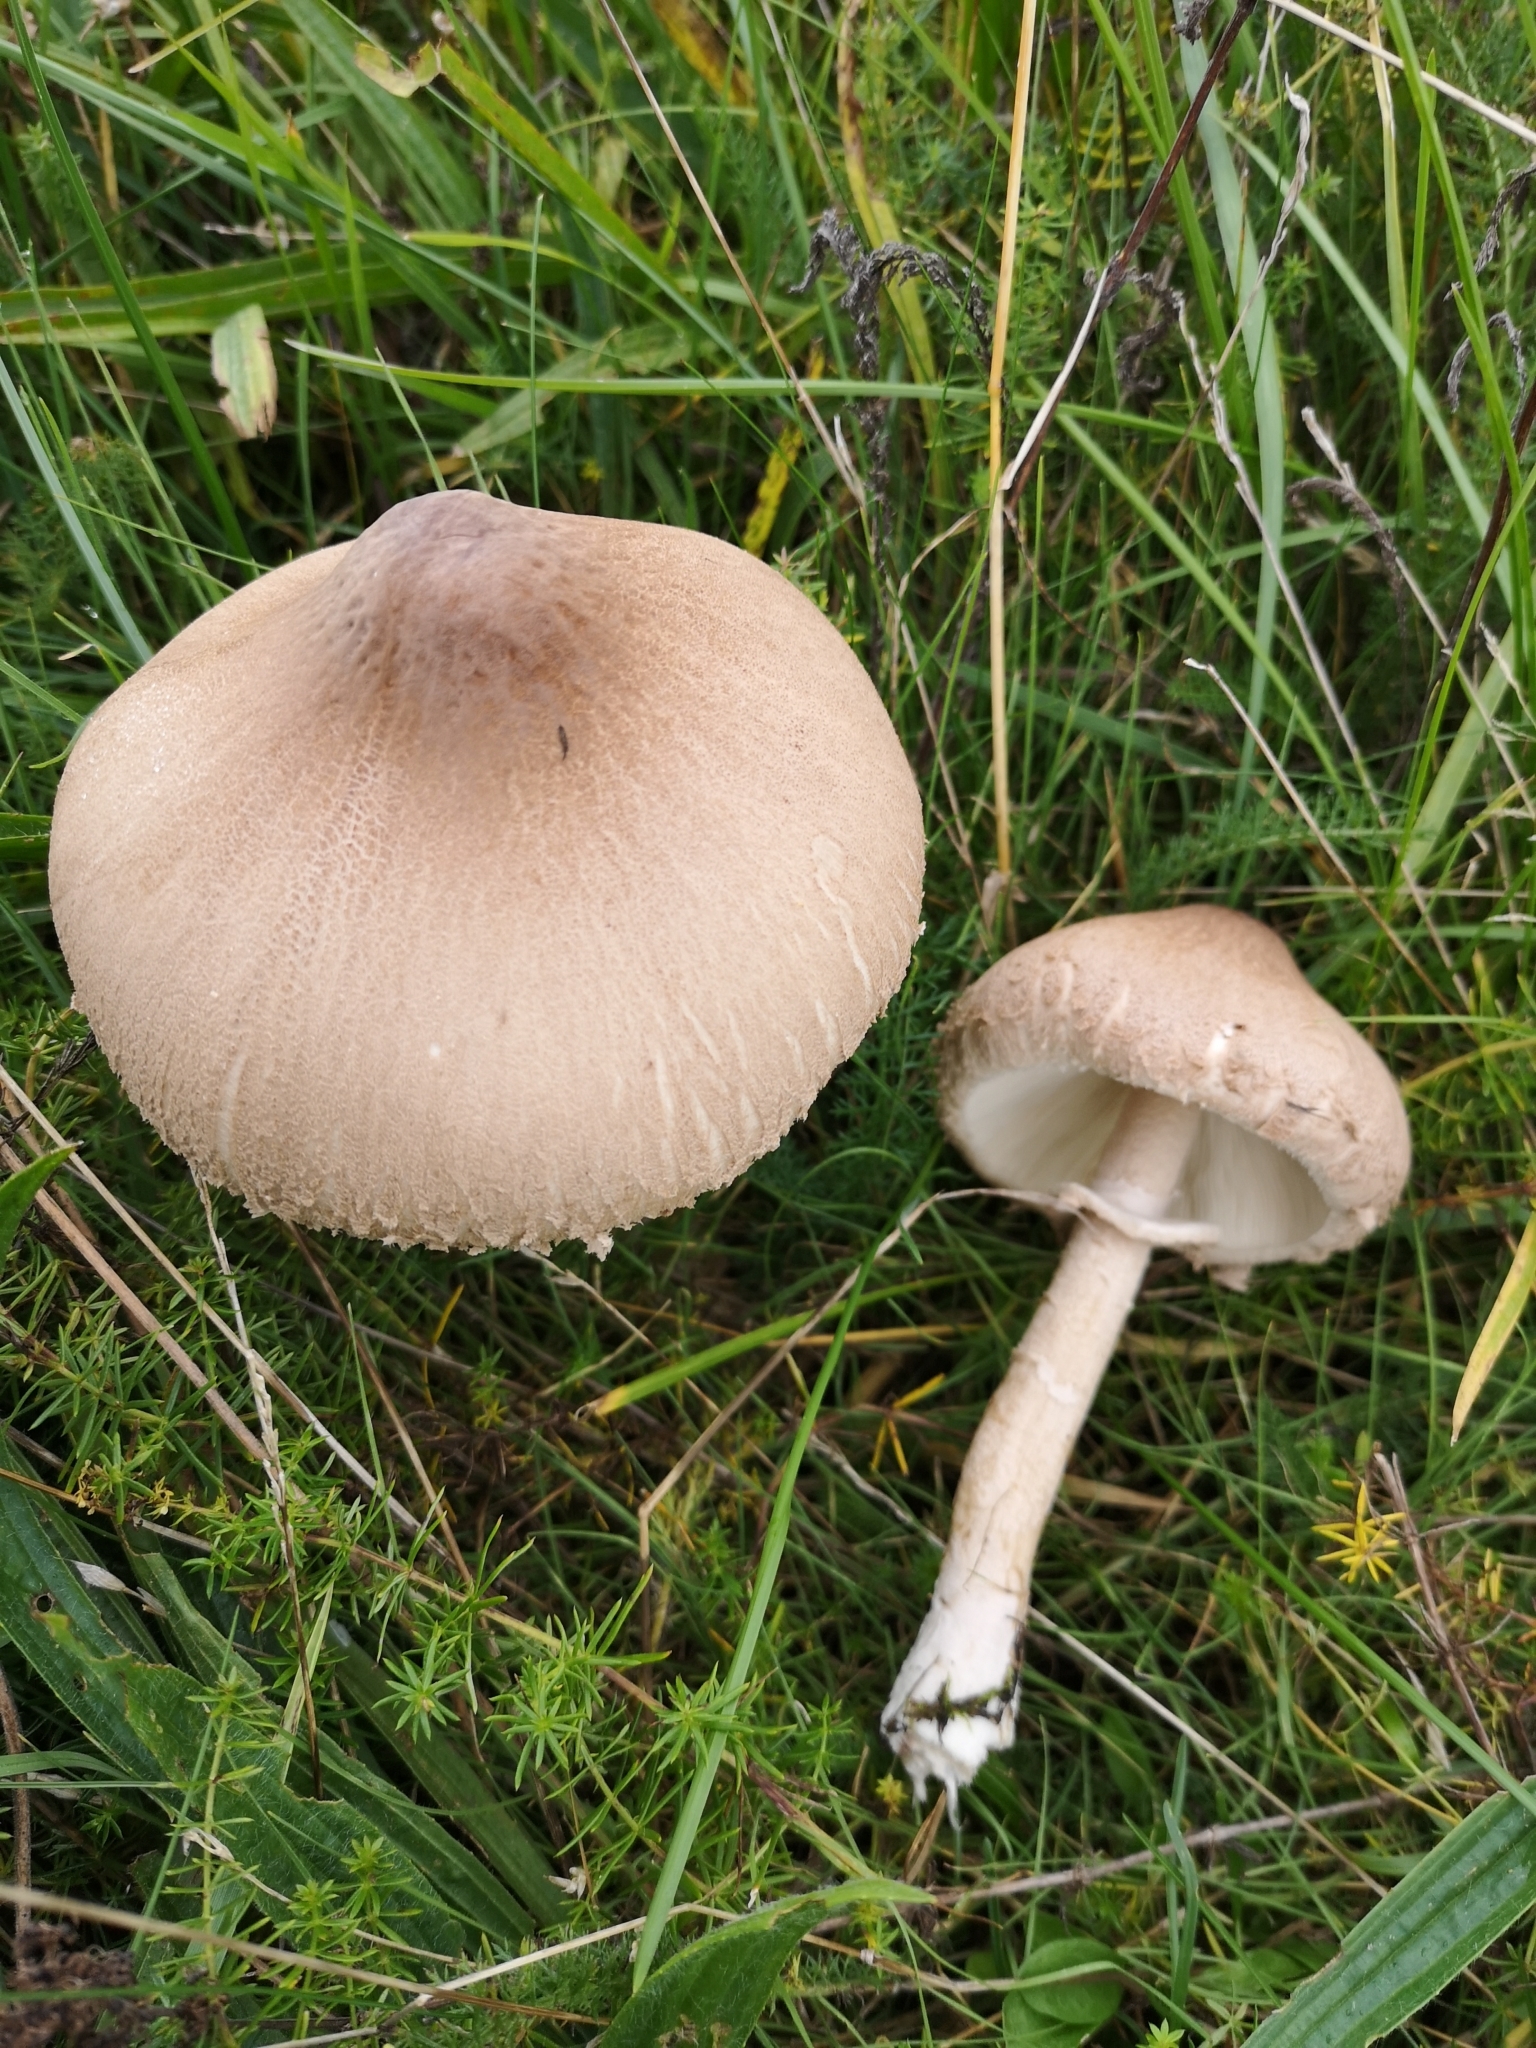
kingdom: Fungi
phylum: Basidiomycota
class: Agaricomycetes
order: Agaricales
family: Agaricaceae
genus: Macrolepiota
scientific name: Macrolepiota procera
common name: Parasol
